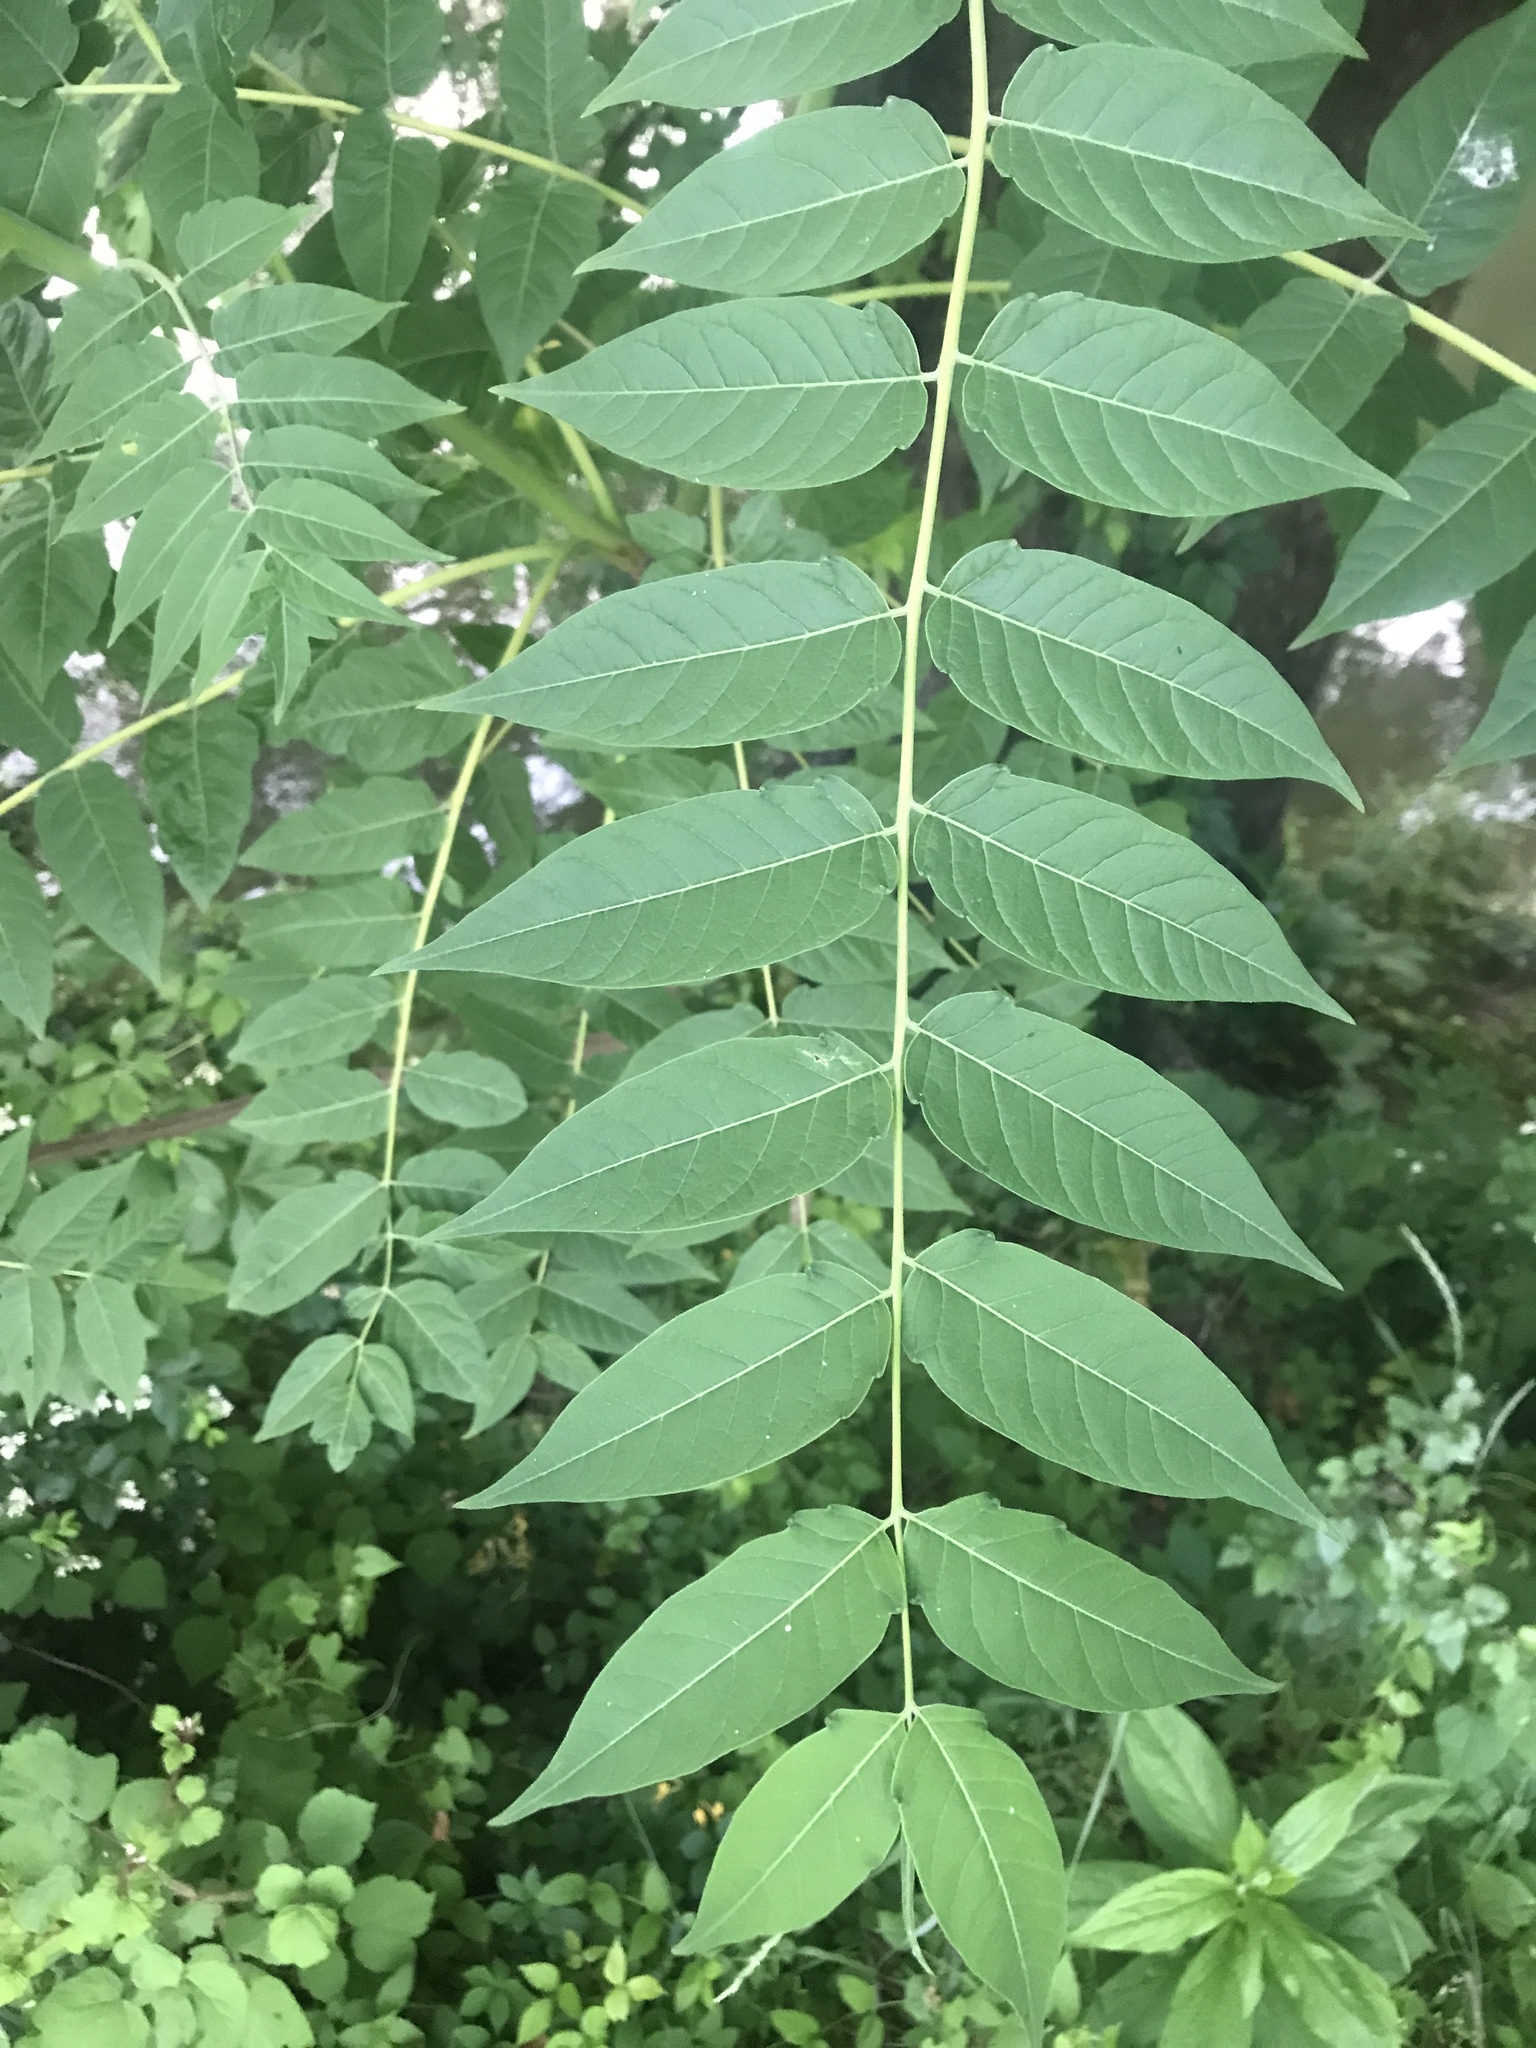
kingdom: Plantae
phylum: Tracheophyta
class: Magnoliopsida
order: Sapindales
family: Simaroubaceae
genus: Ailanthus
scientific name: Ailanthus altissima
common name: Tree-of-heaven
